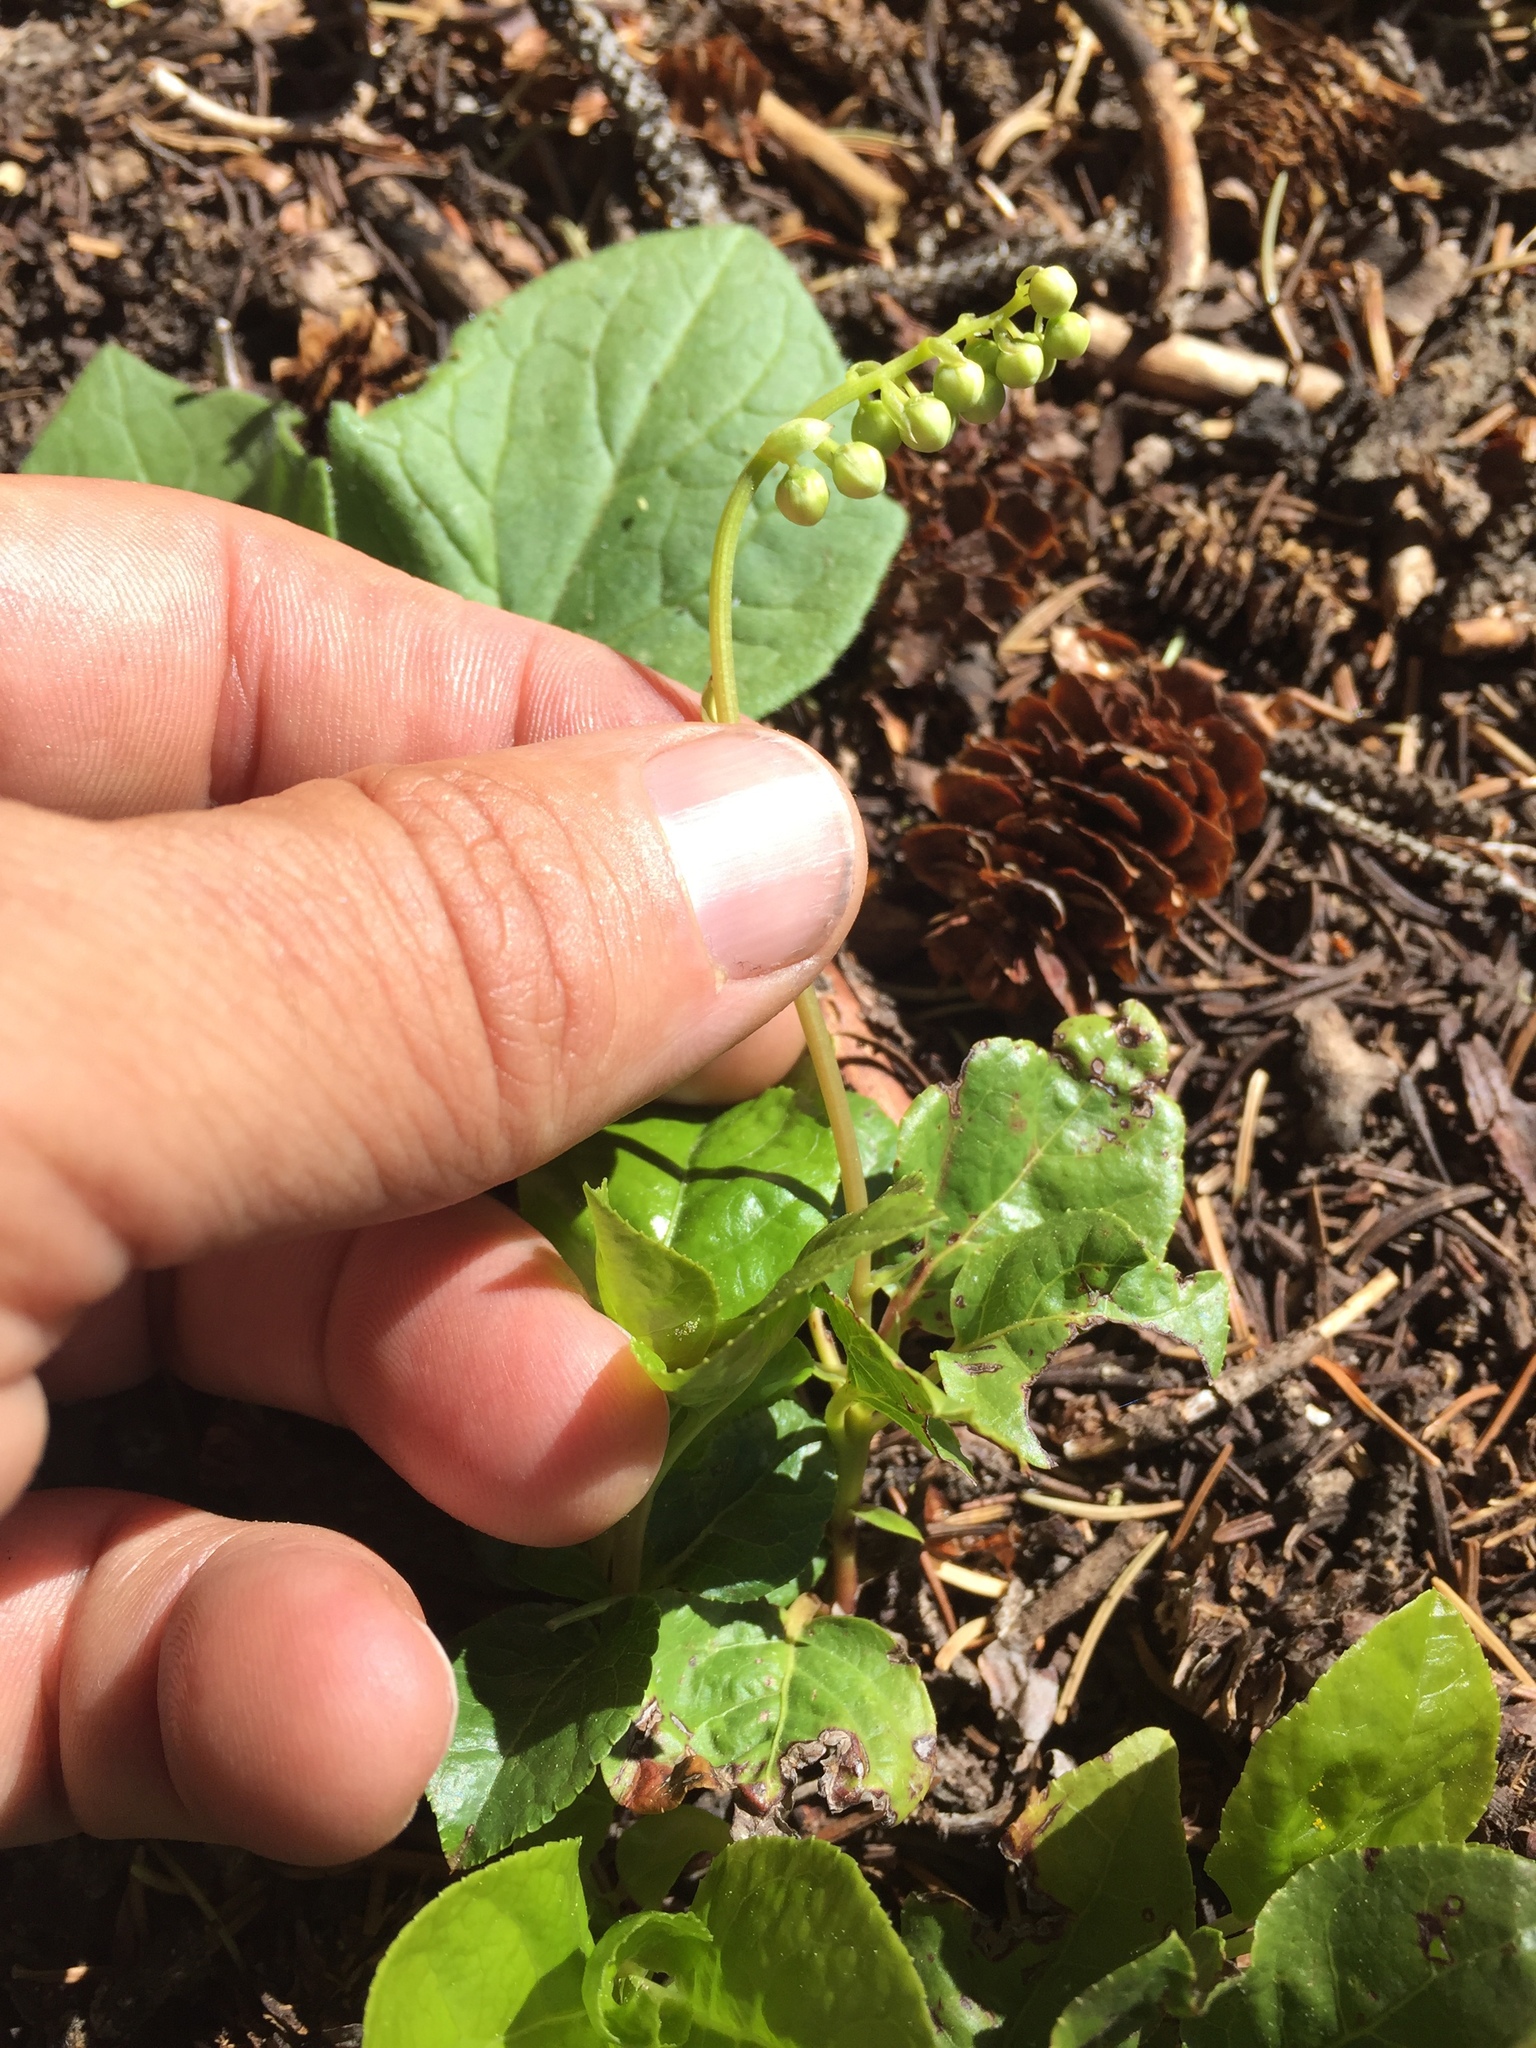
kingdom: Plantae
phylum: Tracheophyta
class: Magnoliopsida
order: Ericales
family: Ericaceae
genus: Orthilia
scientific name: Orthilia secunda
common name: One-sided orthilia
